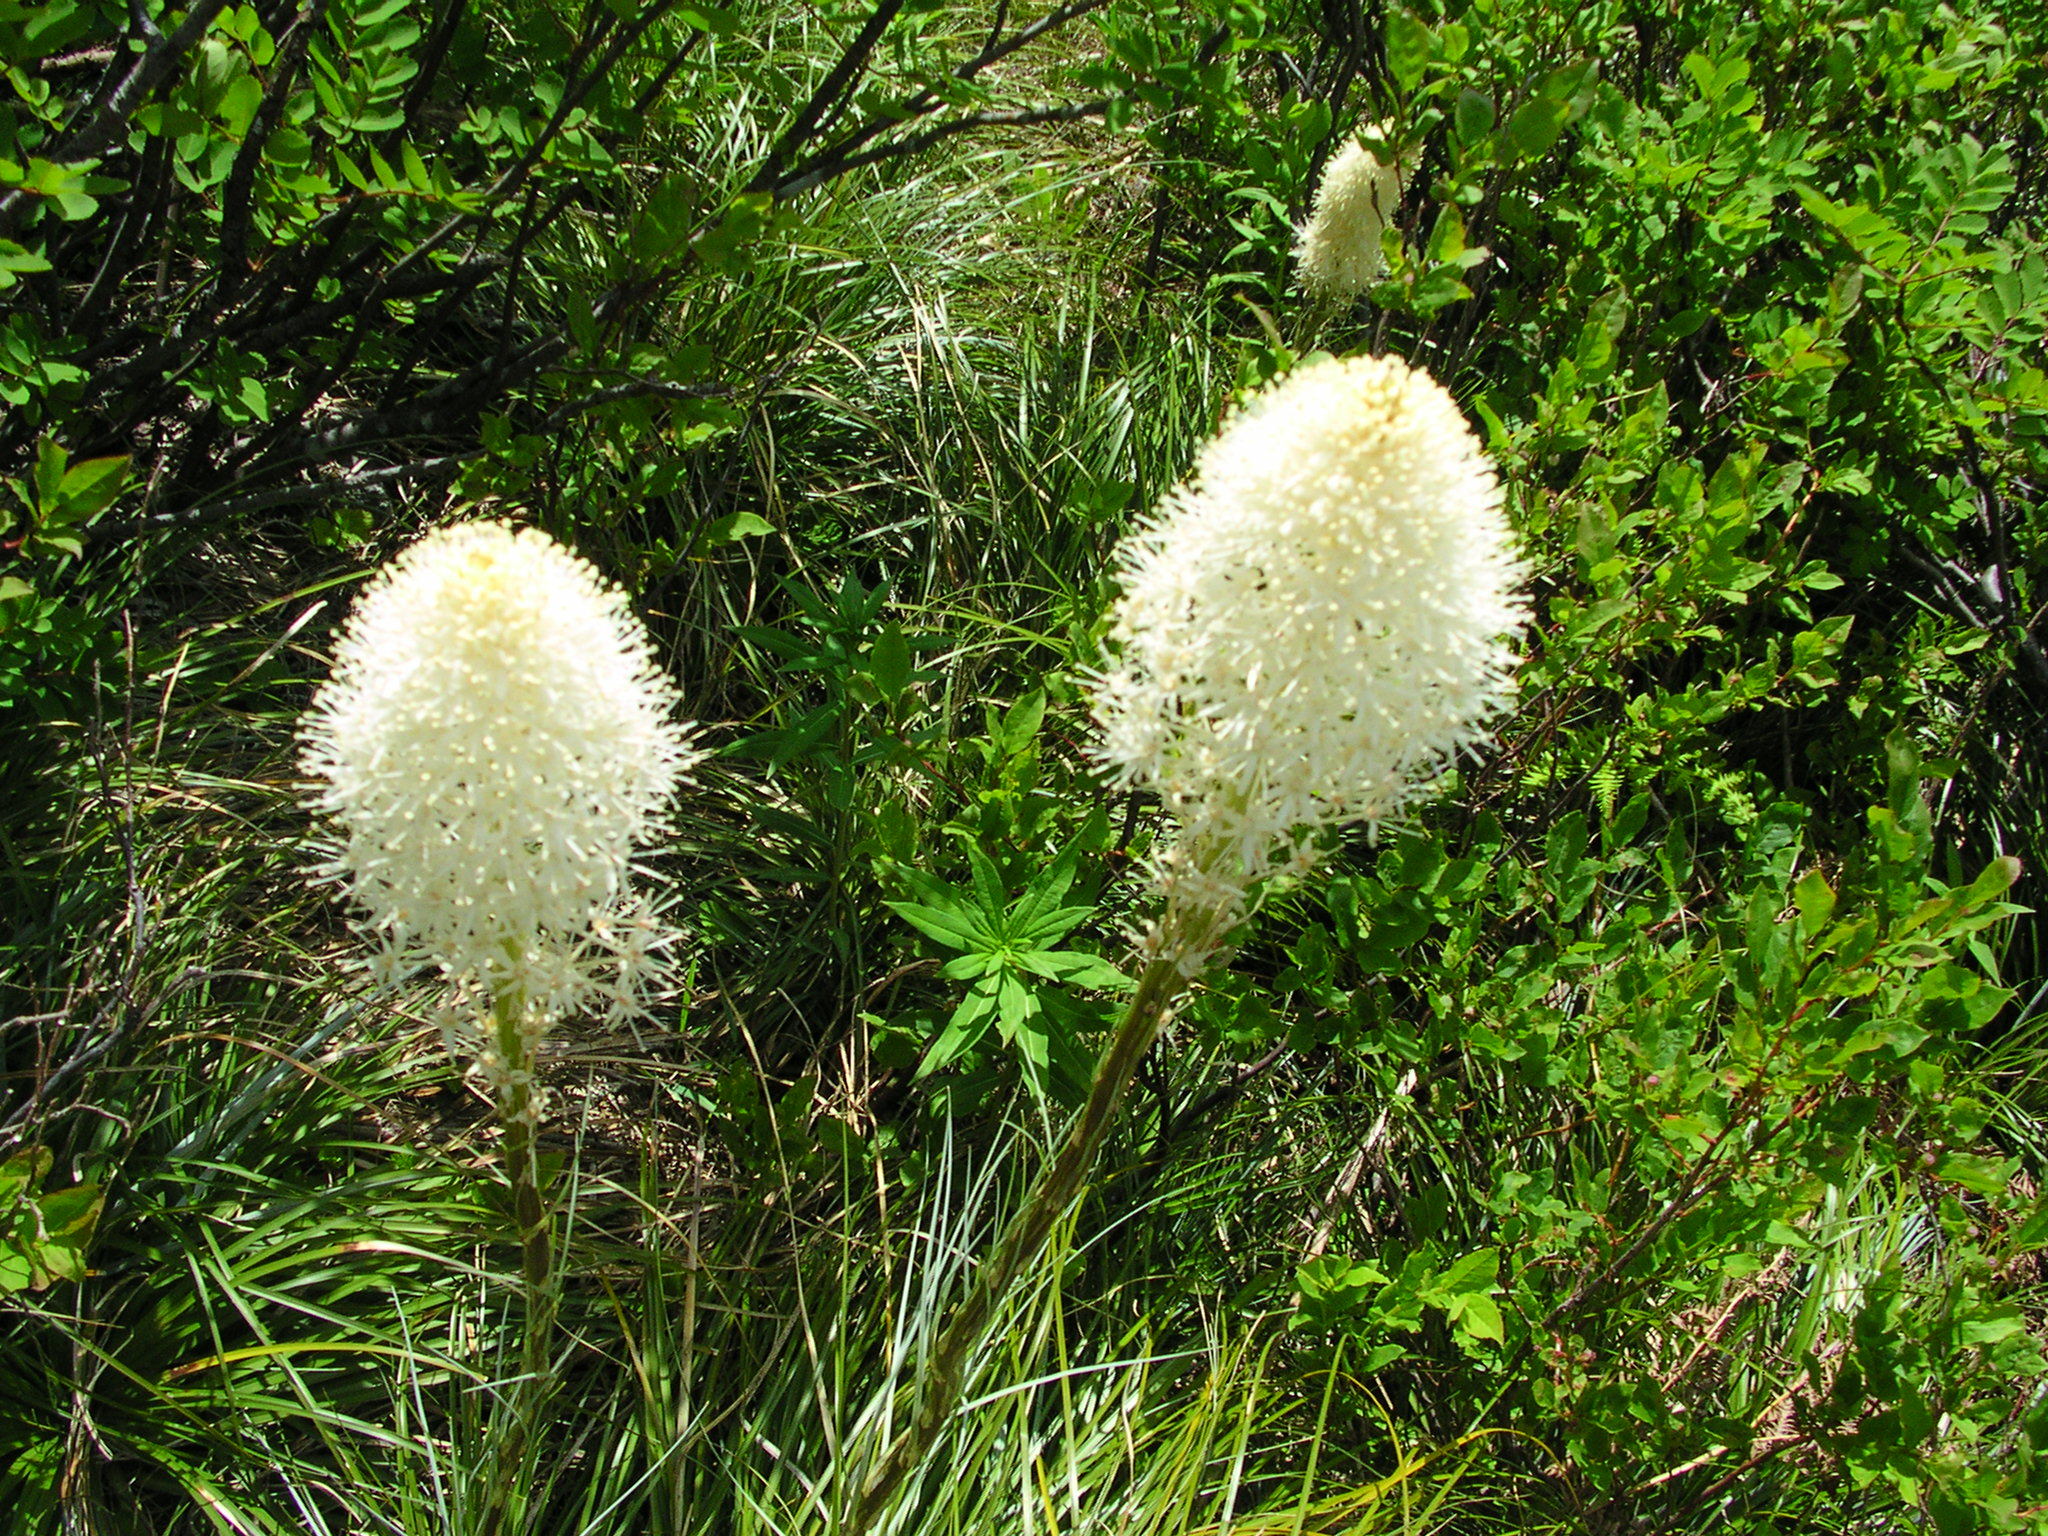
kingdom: Plantae
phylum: Tracheophyta
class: Liliopsida
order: Liliales
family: Melanthiaceae
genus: Xerophyllum
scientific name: Xerophyllum tenax
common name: Bear-grass
